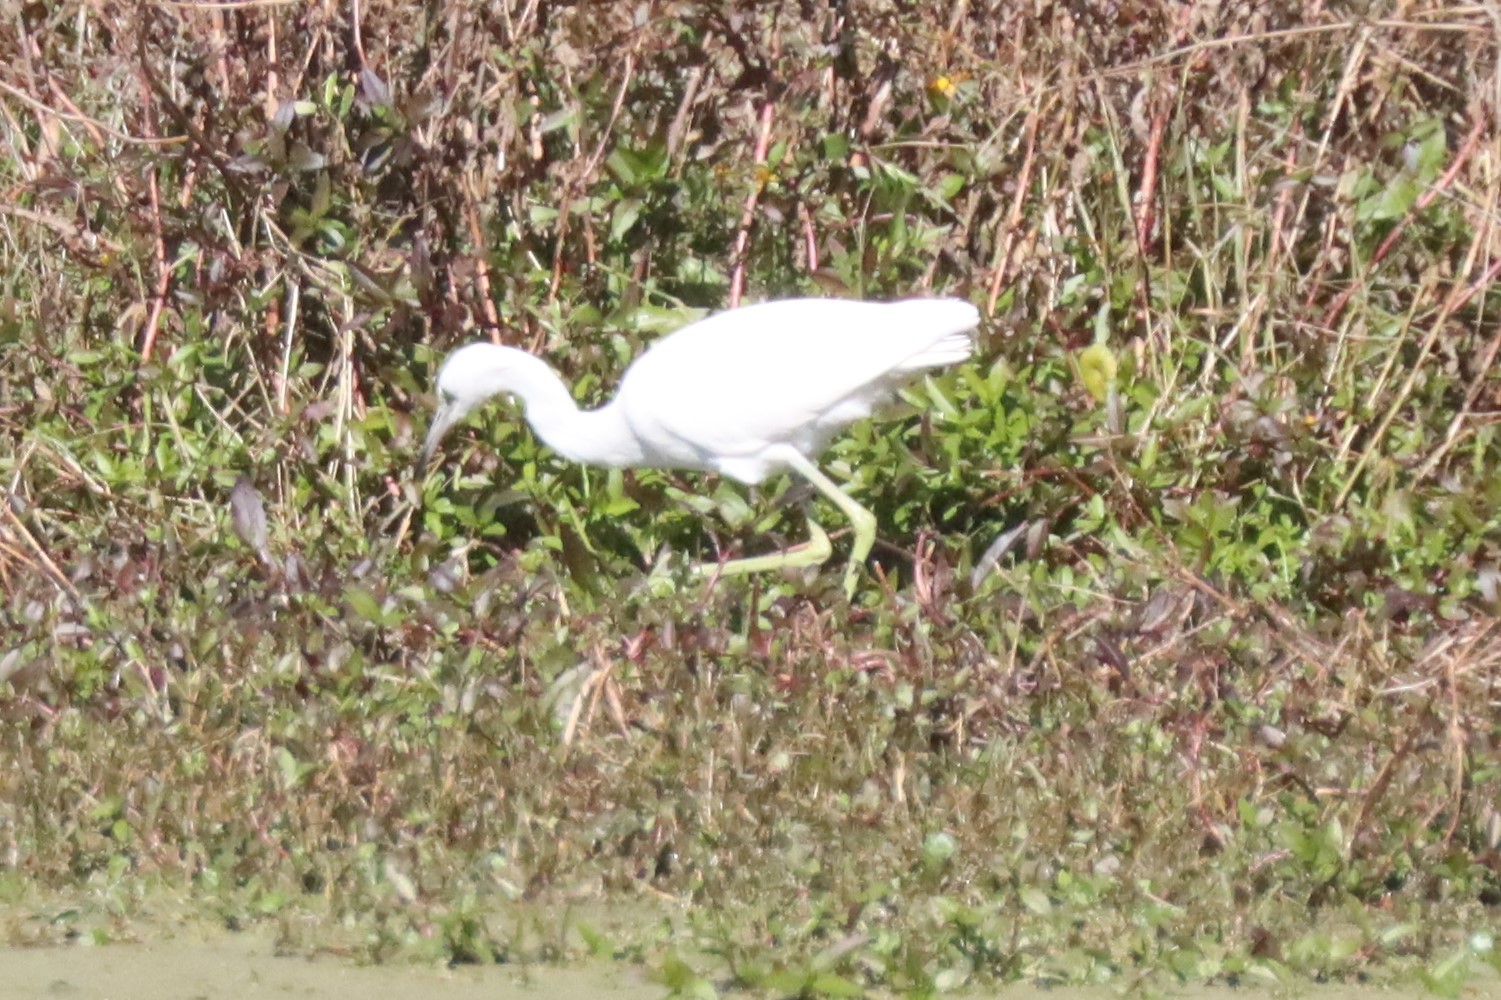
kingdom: Animalia
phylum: Chordata
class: Aves
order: Pelecaniformes
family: Ardeidae
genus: Egretta
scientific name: Egretta caerulea
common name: Little blue heron
